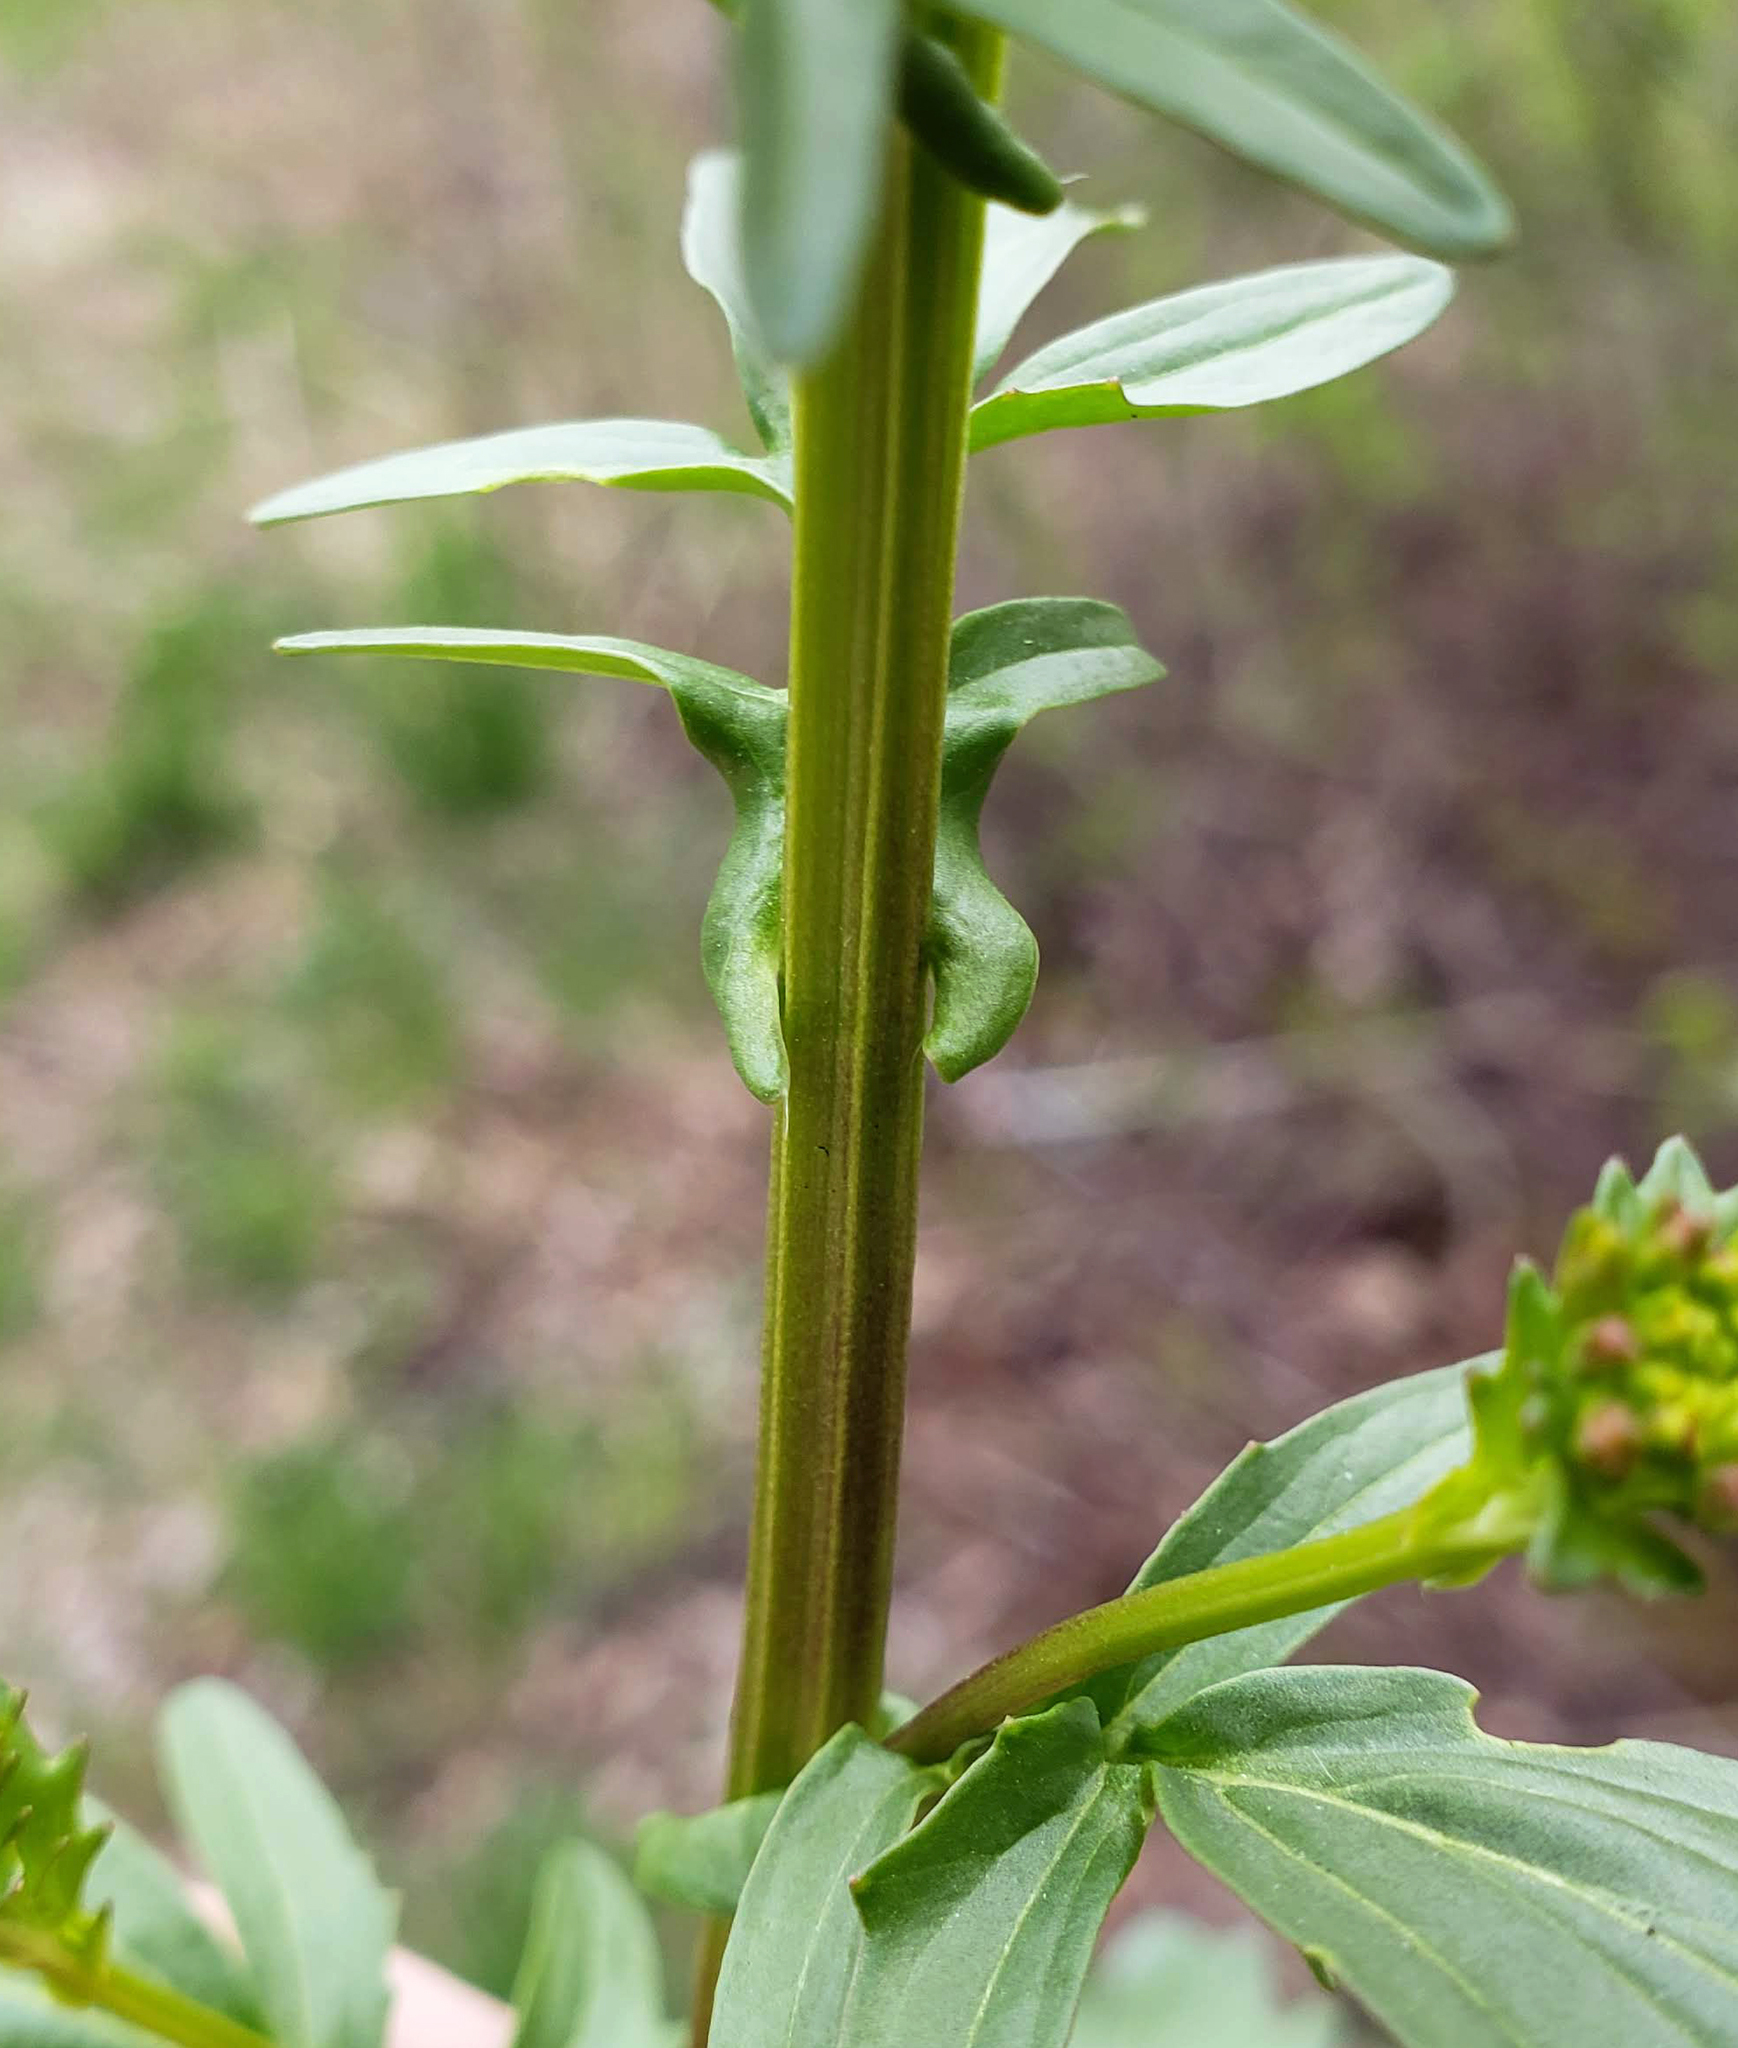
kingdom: Plantae
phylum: Tracheophyta
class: Magnoliopsida
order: Brassicales
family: Brassicaceae
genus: Barbarea
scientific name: Barbarea vulgaris
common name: Cressy-greens
